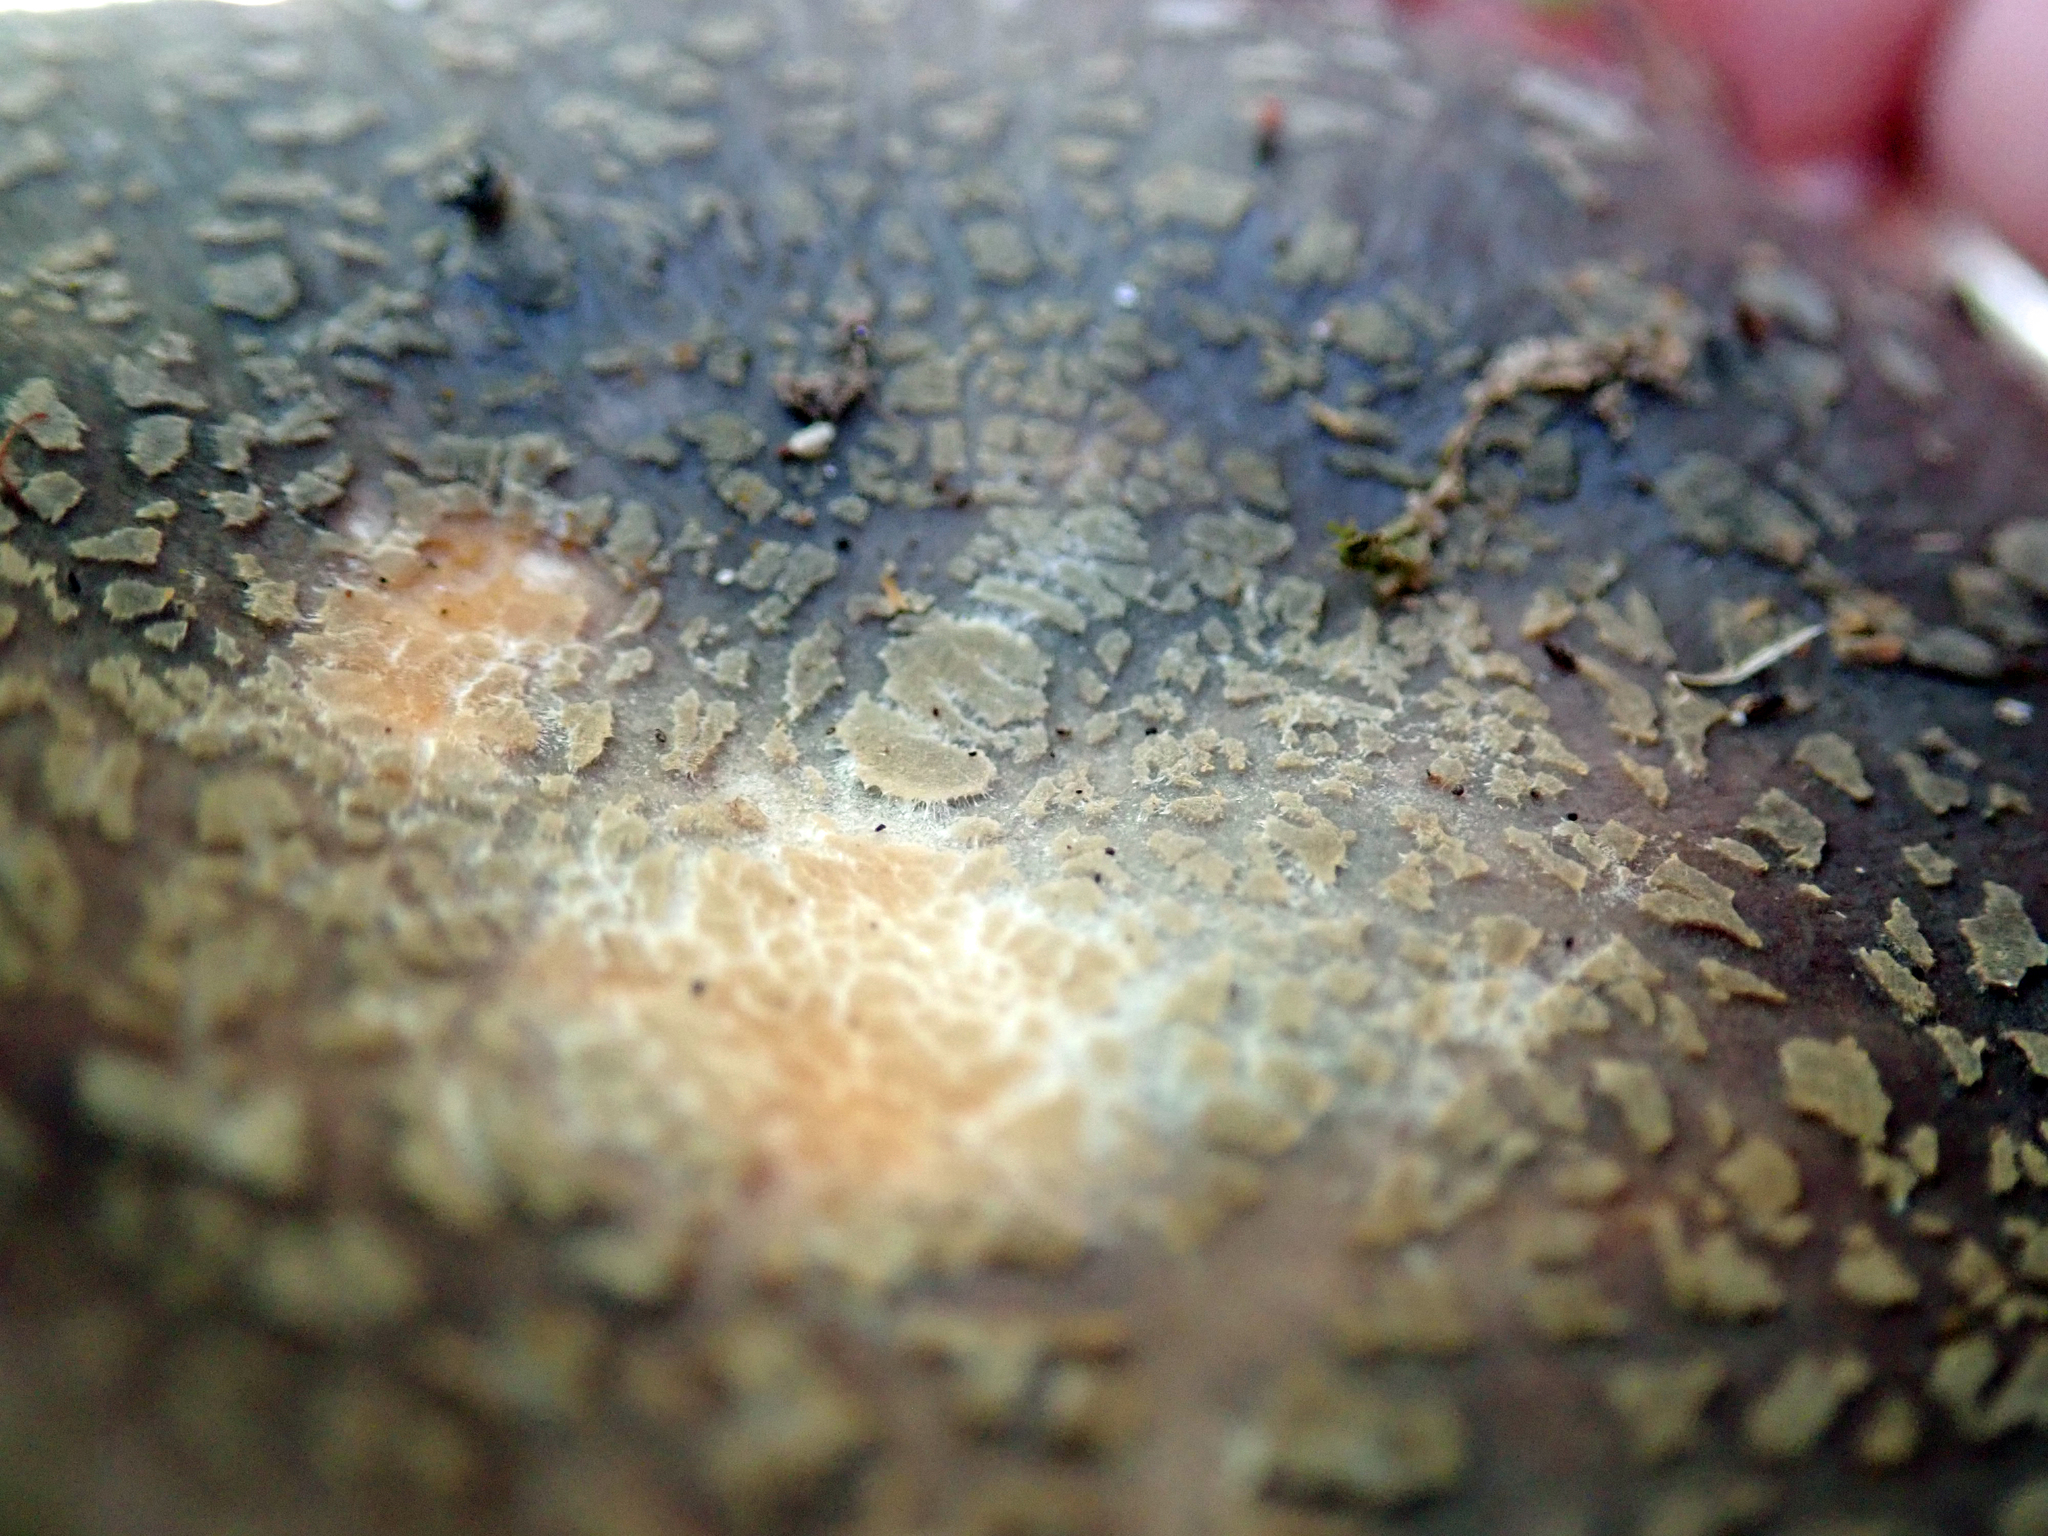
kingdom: Fungi
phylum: Basidiomycota
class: Agaricomycetes
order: Russulales
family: Russulaceae
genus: Russula
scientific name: Russula griseoviridis
